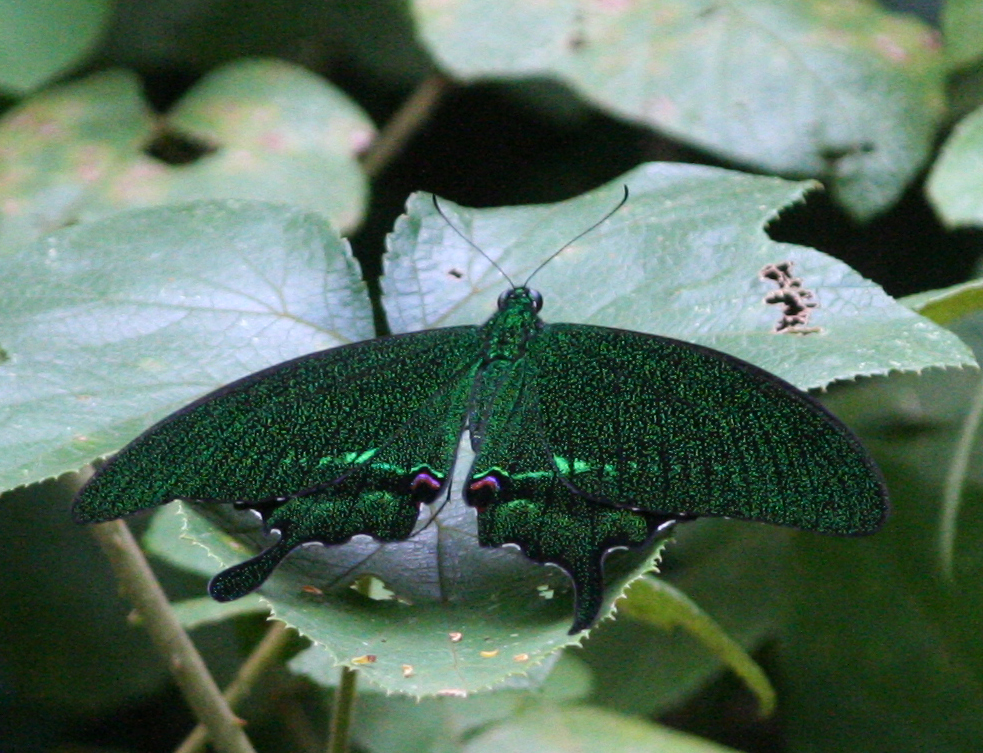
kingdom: Animalia
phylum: Arthropoda
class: Insecta
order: Lepidoptera
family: Papilionidae
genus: Papilio
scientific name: Papilio paris
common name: Paris peacock
